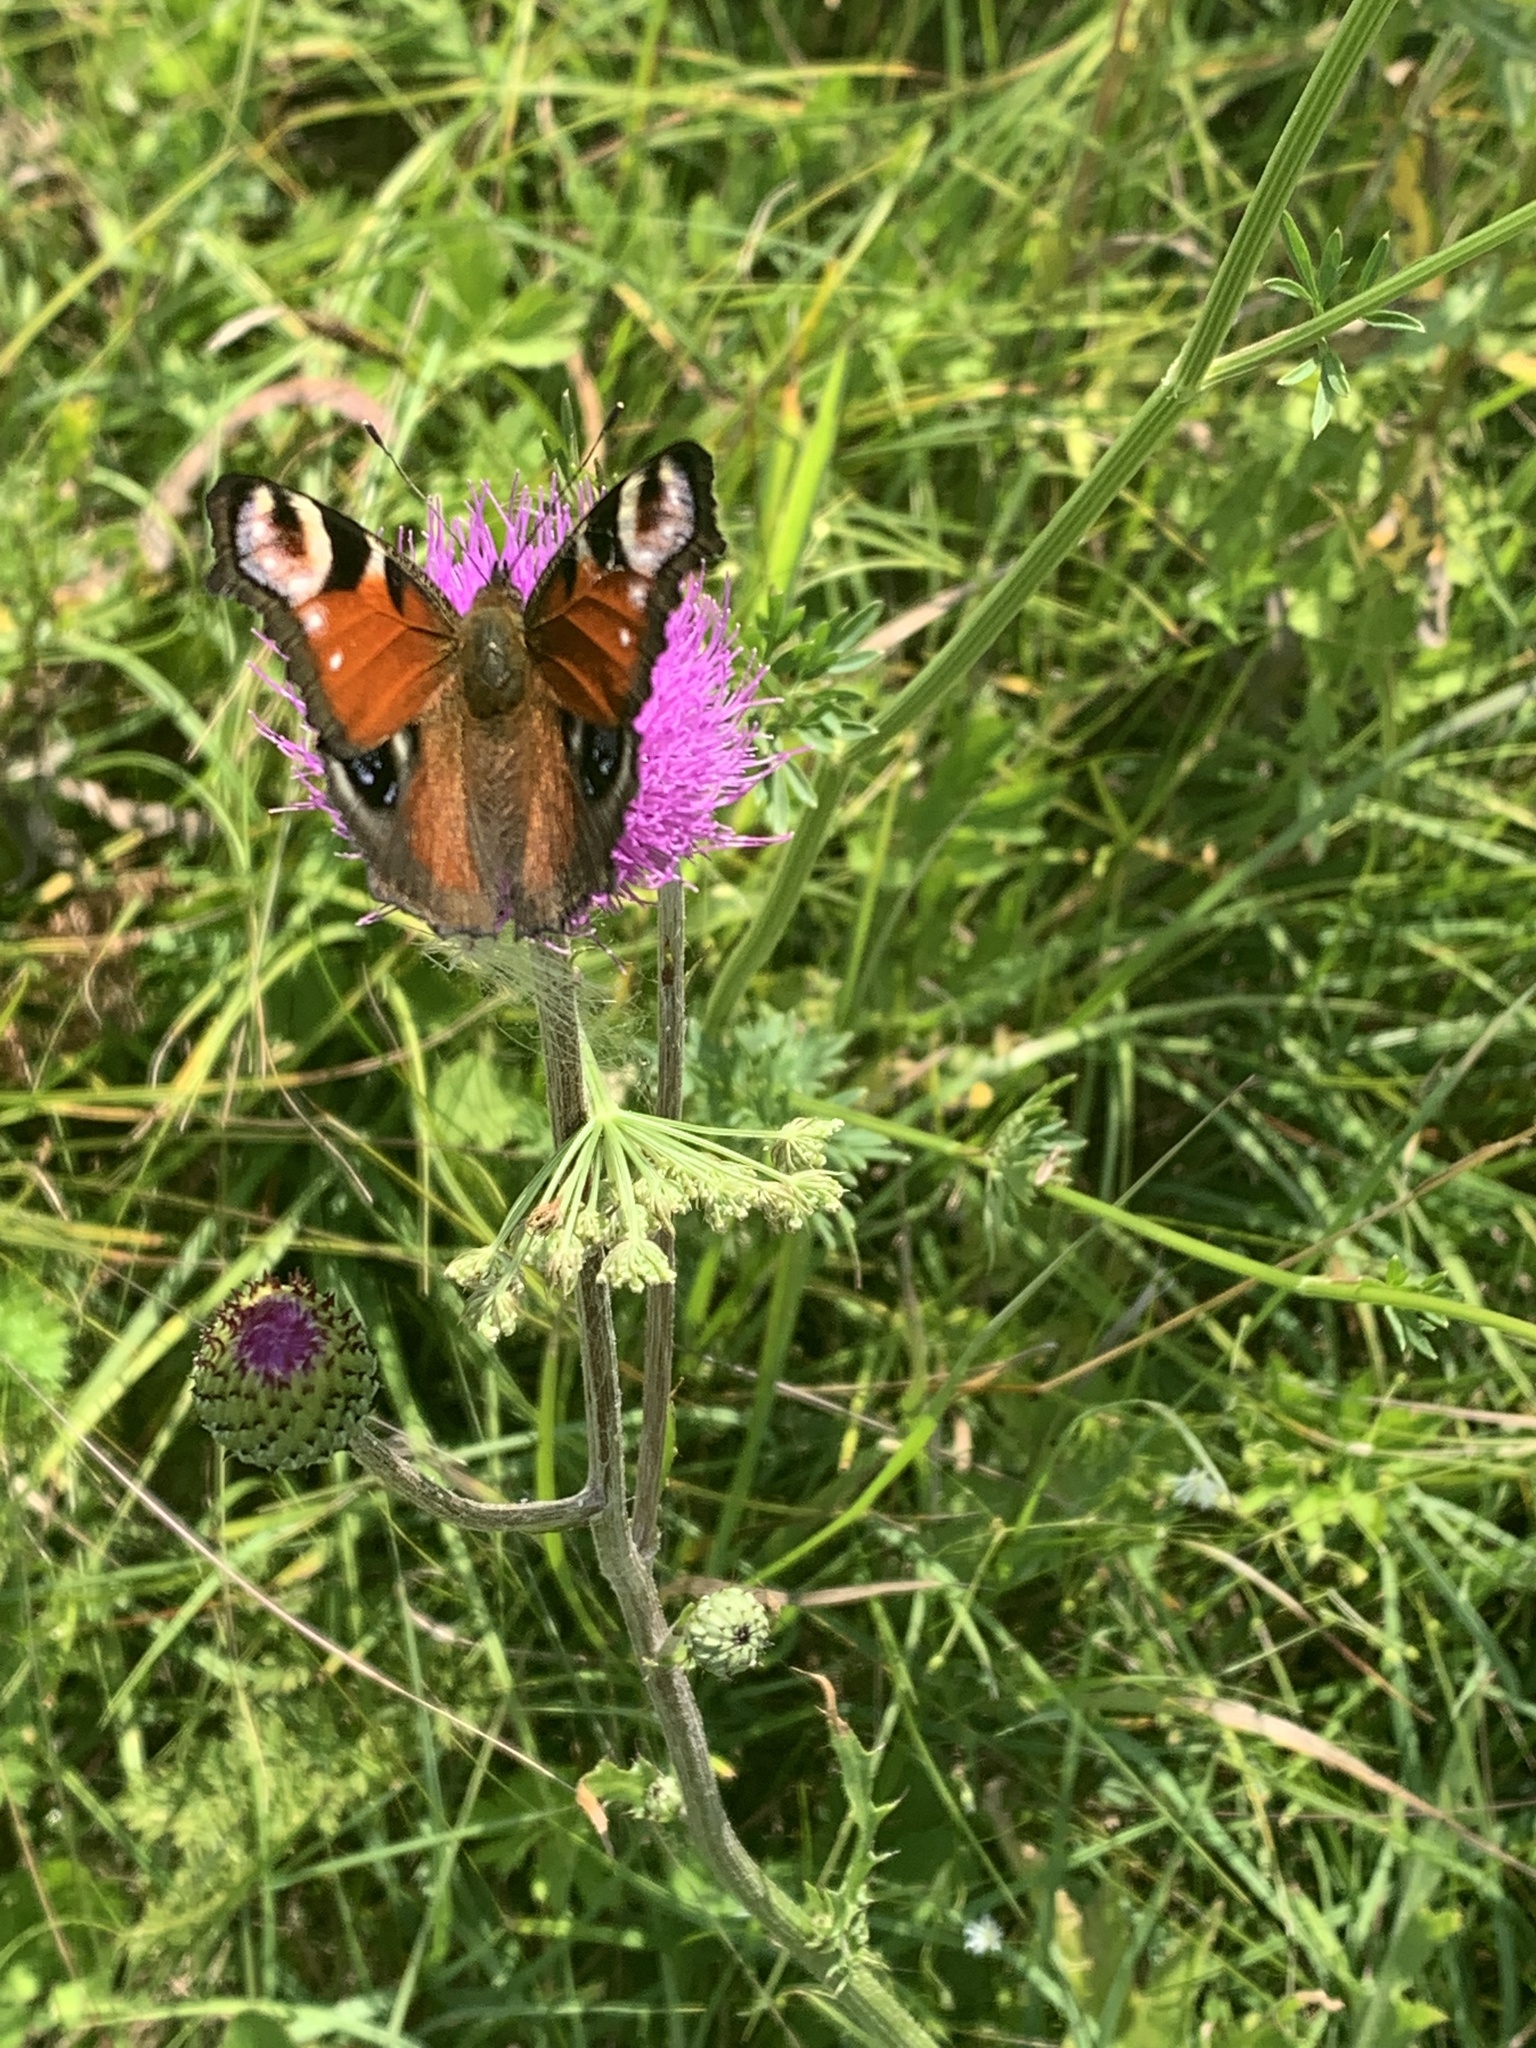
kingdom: Animalia
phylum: Arthropoda
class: Insecta
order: Lepidoptera
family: Nymphalidae
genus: Aglais
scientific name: Aglais io
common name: Peacock
